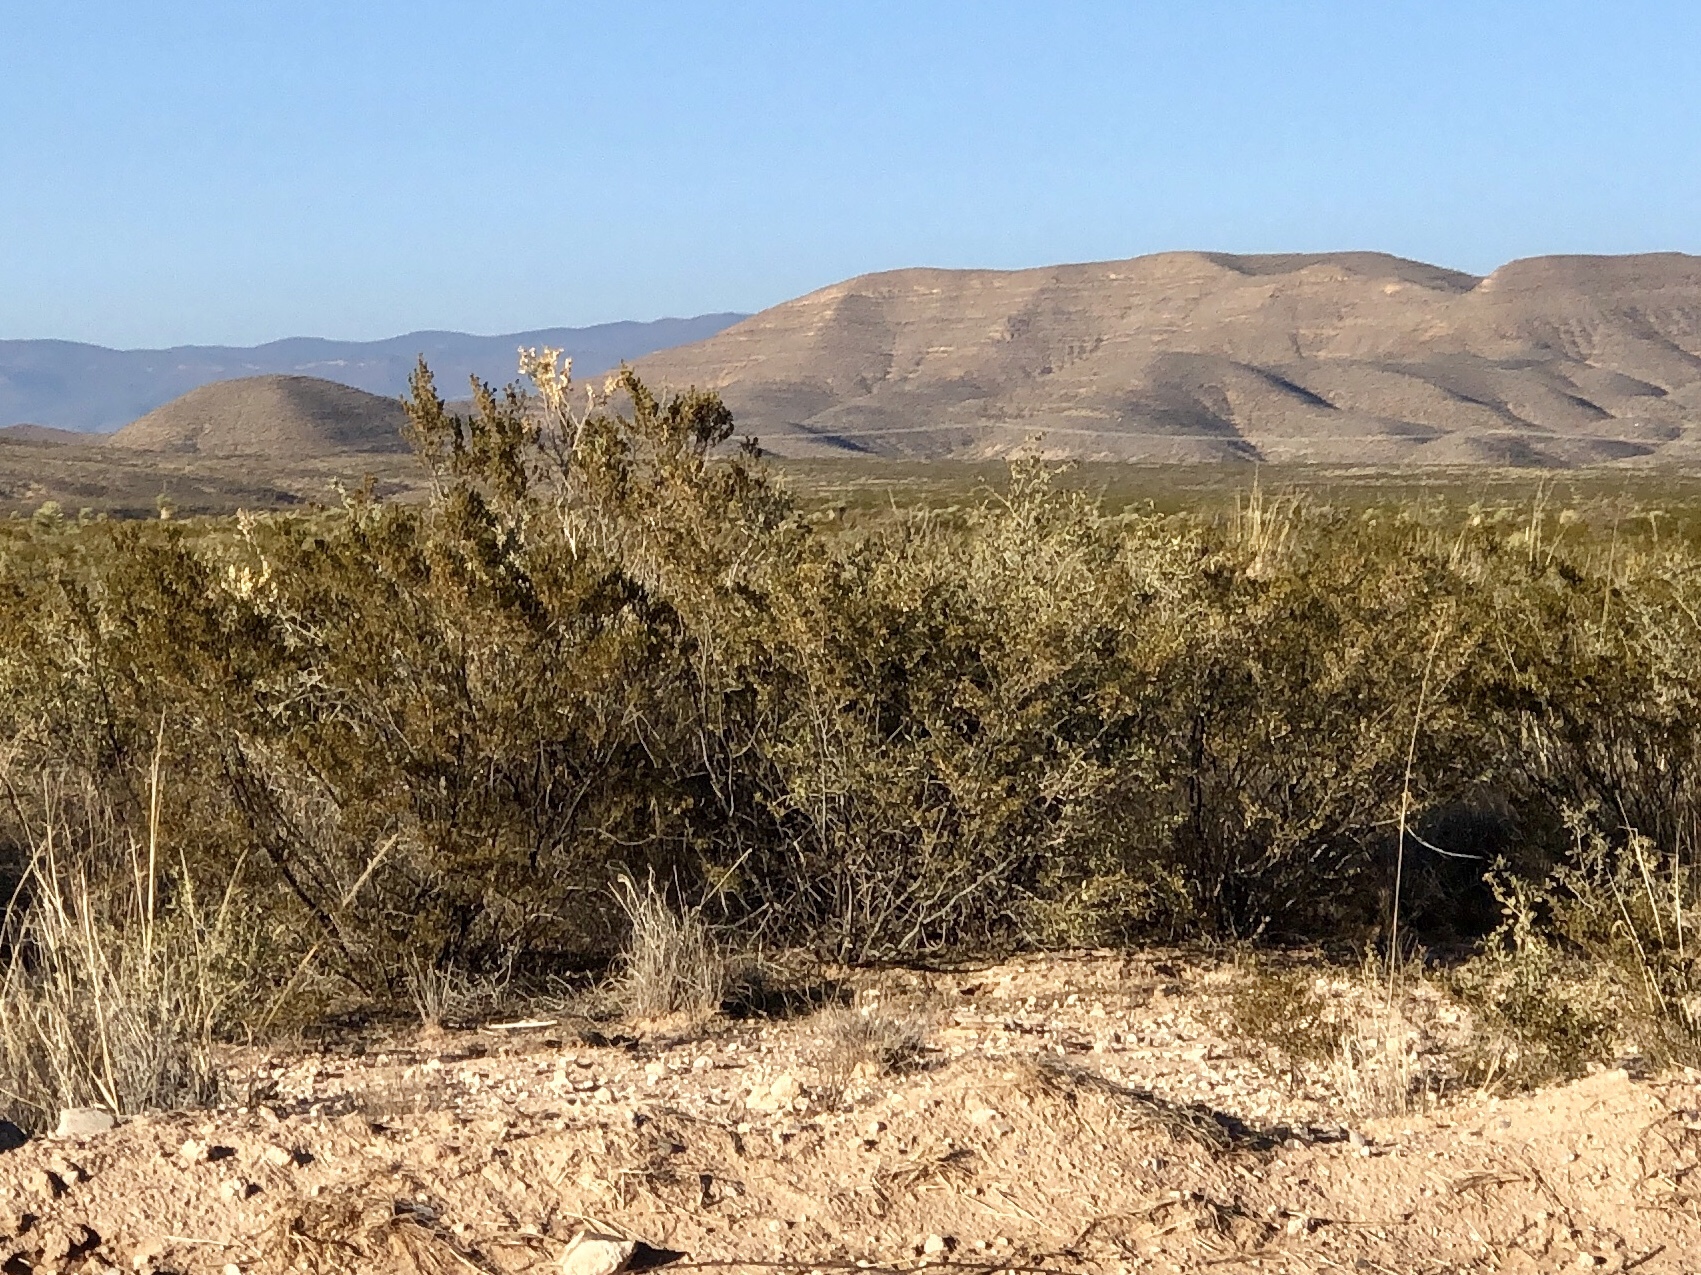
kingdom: Plantae
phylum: Tracheophyta
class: Magnoliopsida
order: Zygophyllales
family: Zygophyllaceae
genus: Larrea
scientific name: Larrea tridentata
